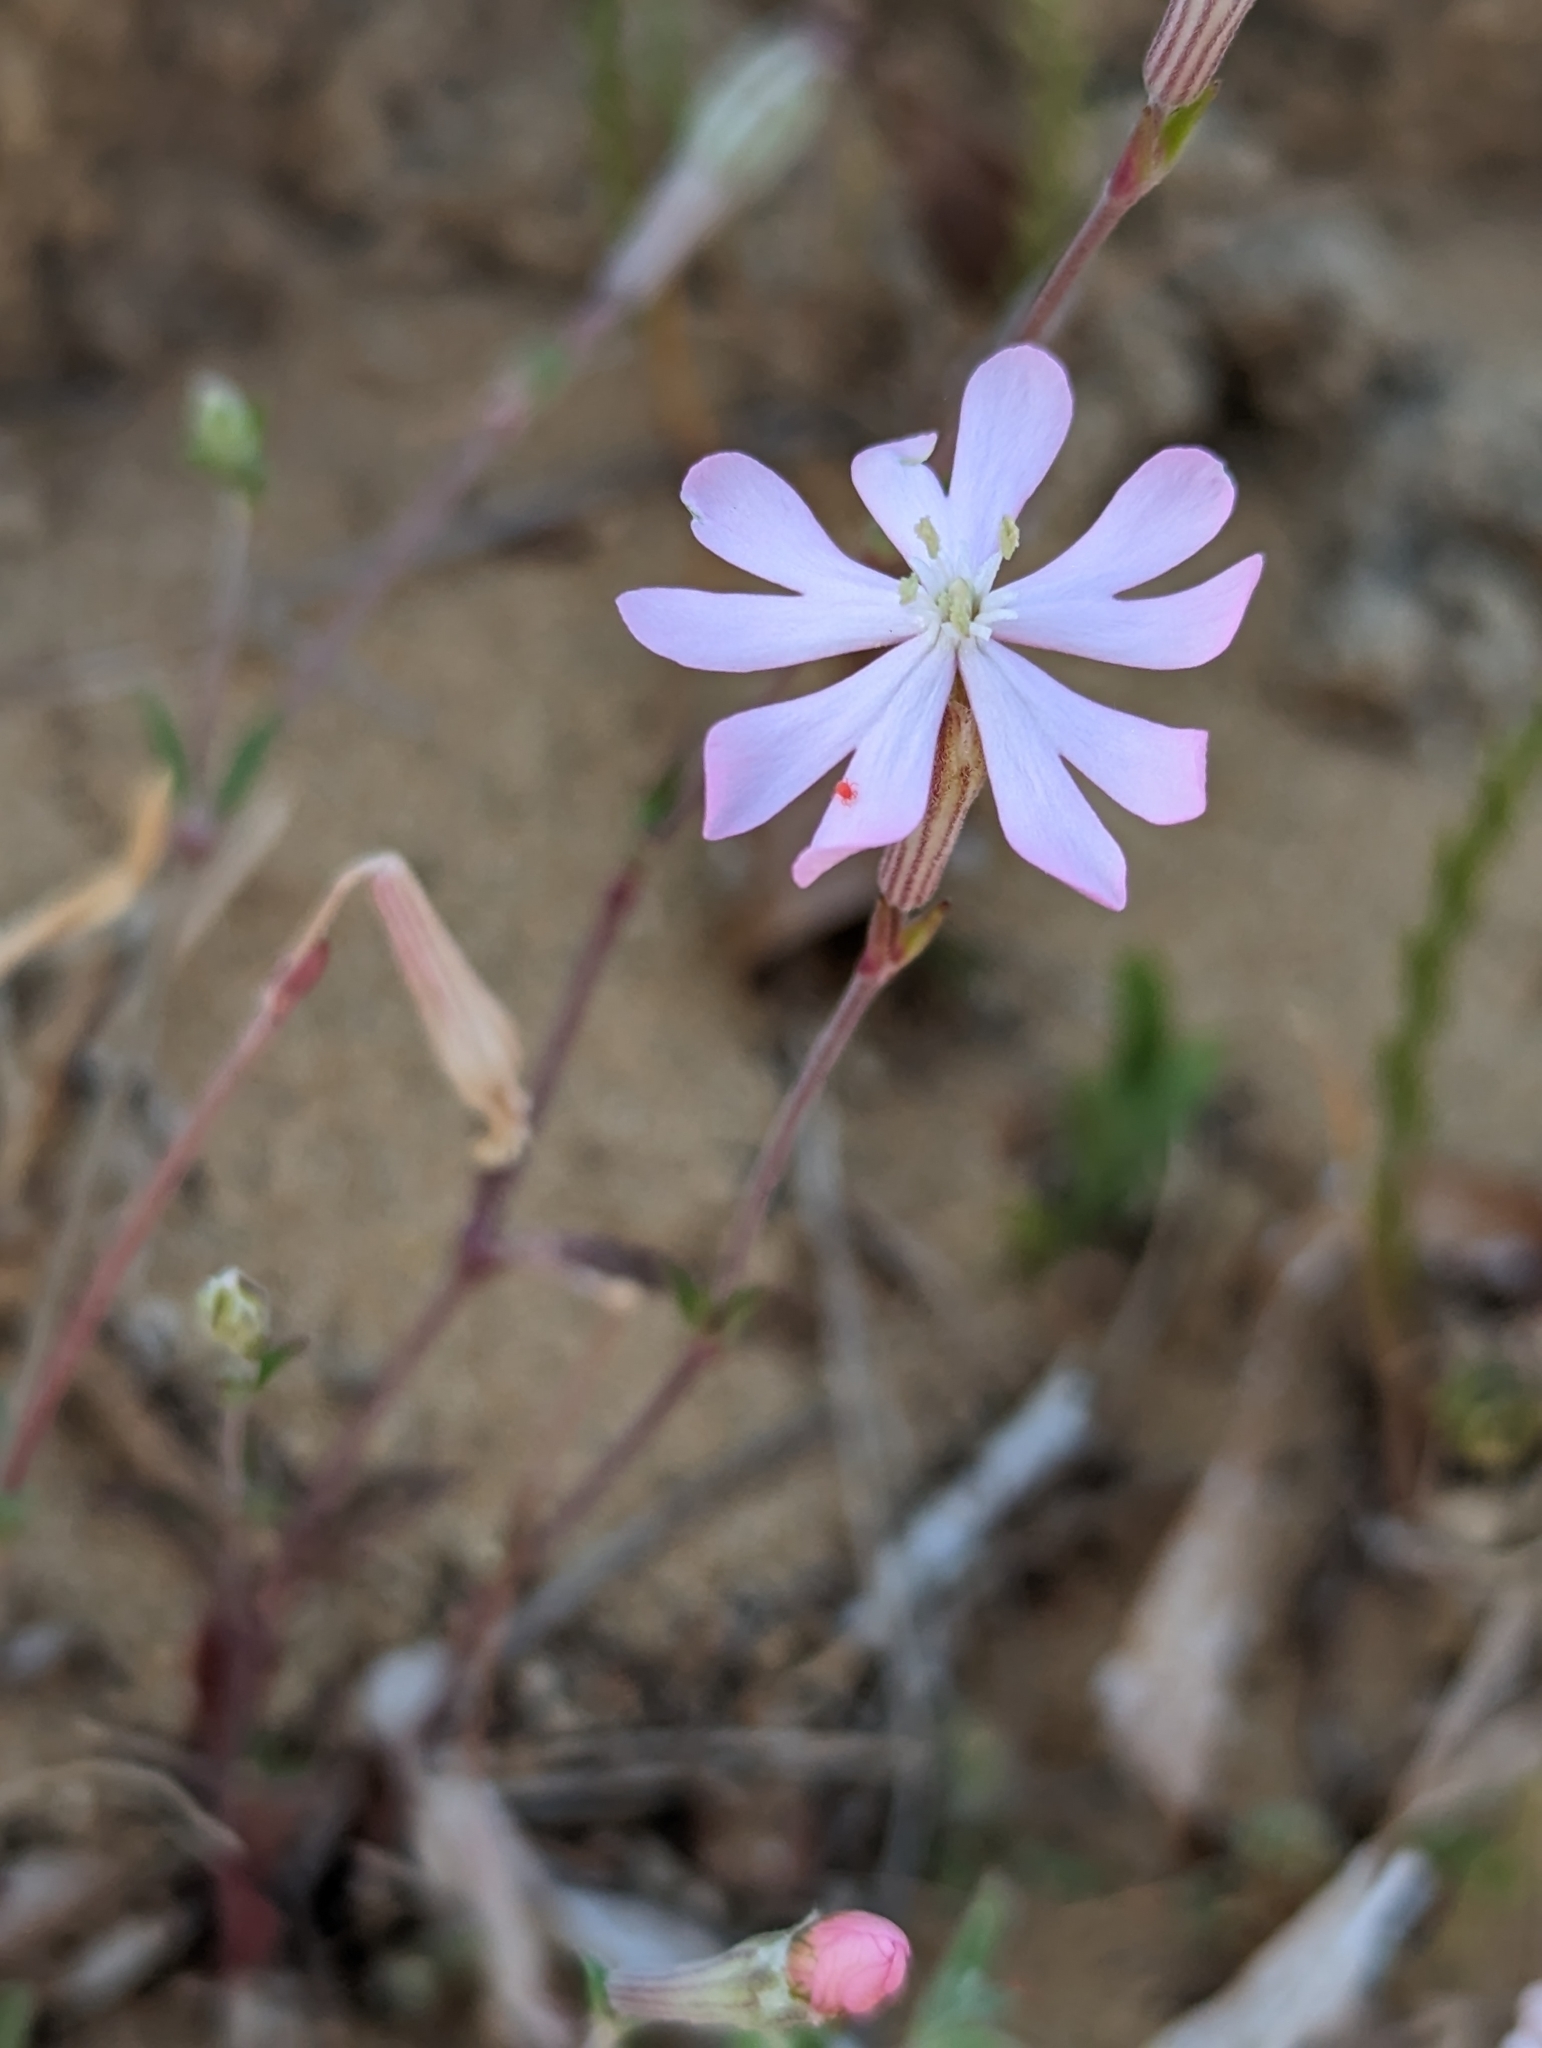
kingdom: Plantae
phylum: Tracheophyta
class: Magnoliopsida
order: Caryophyllales
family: Caryophyllaceae
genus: Silene
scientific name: Silene sericea
